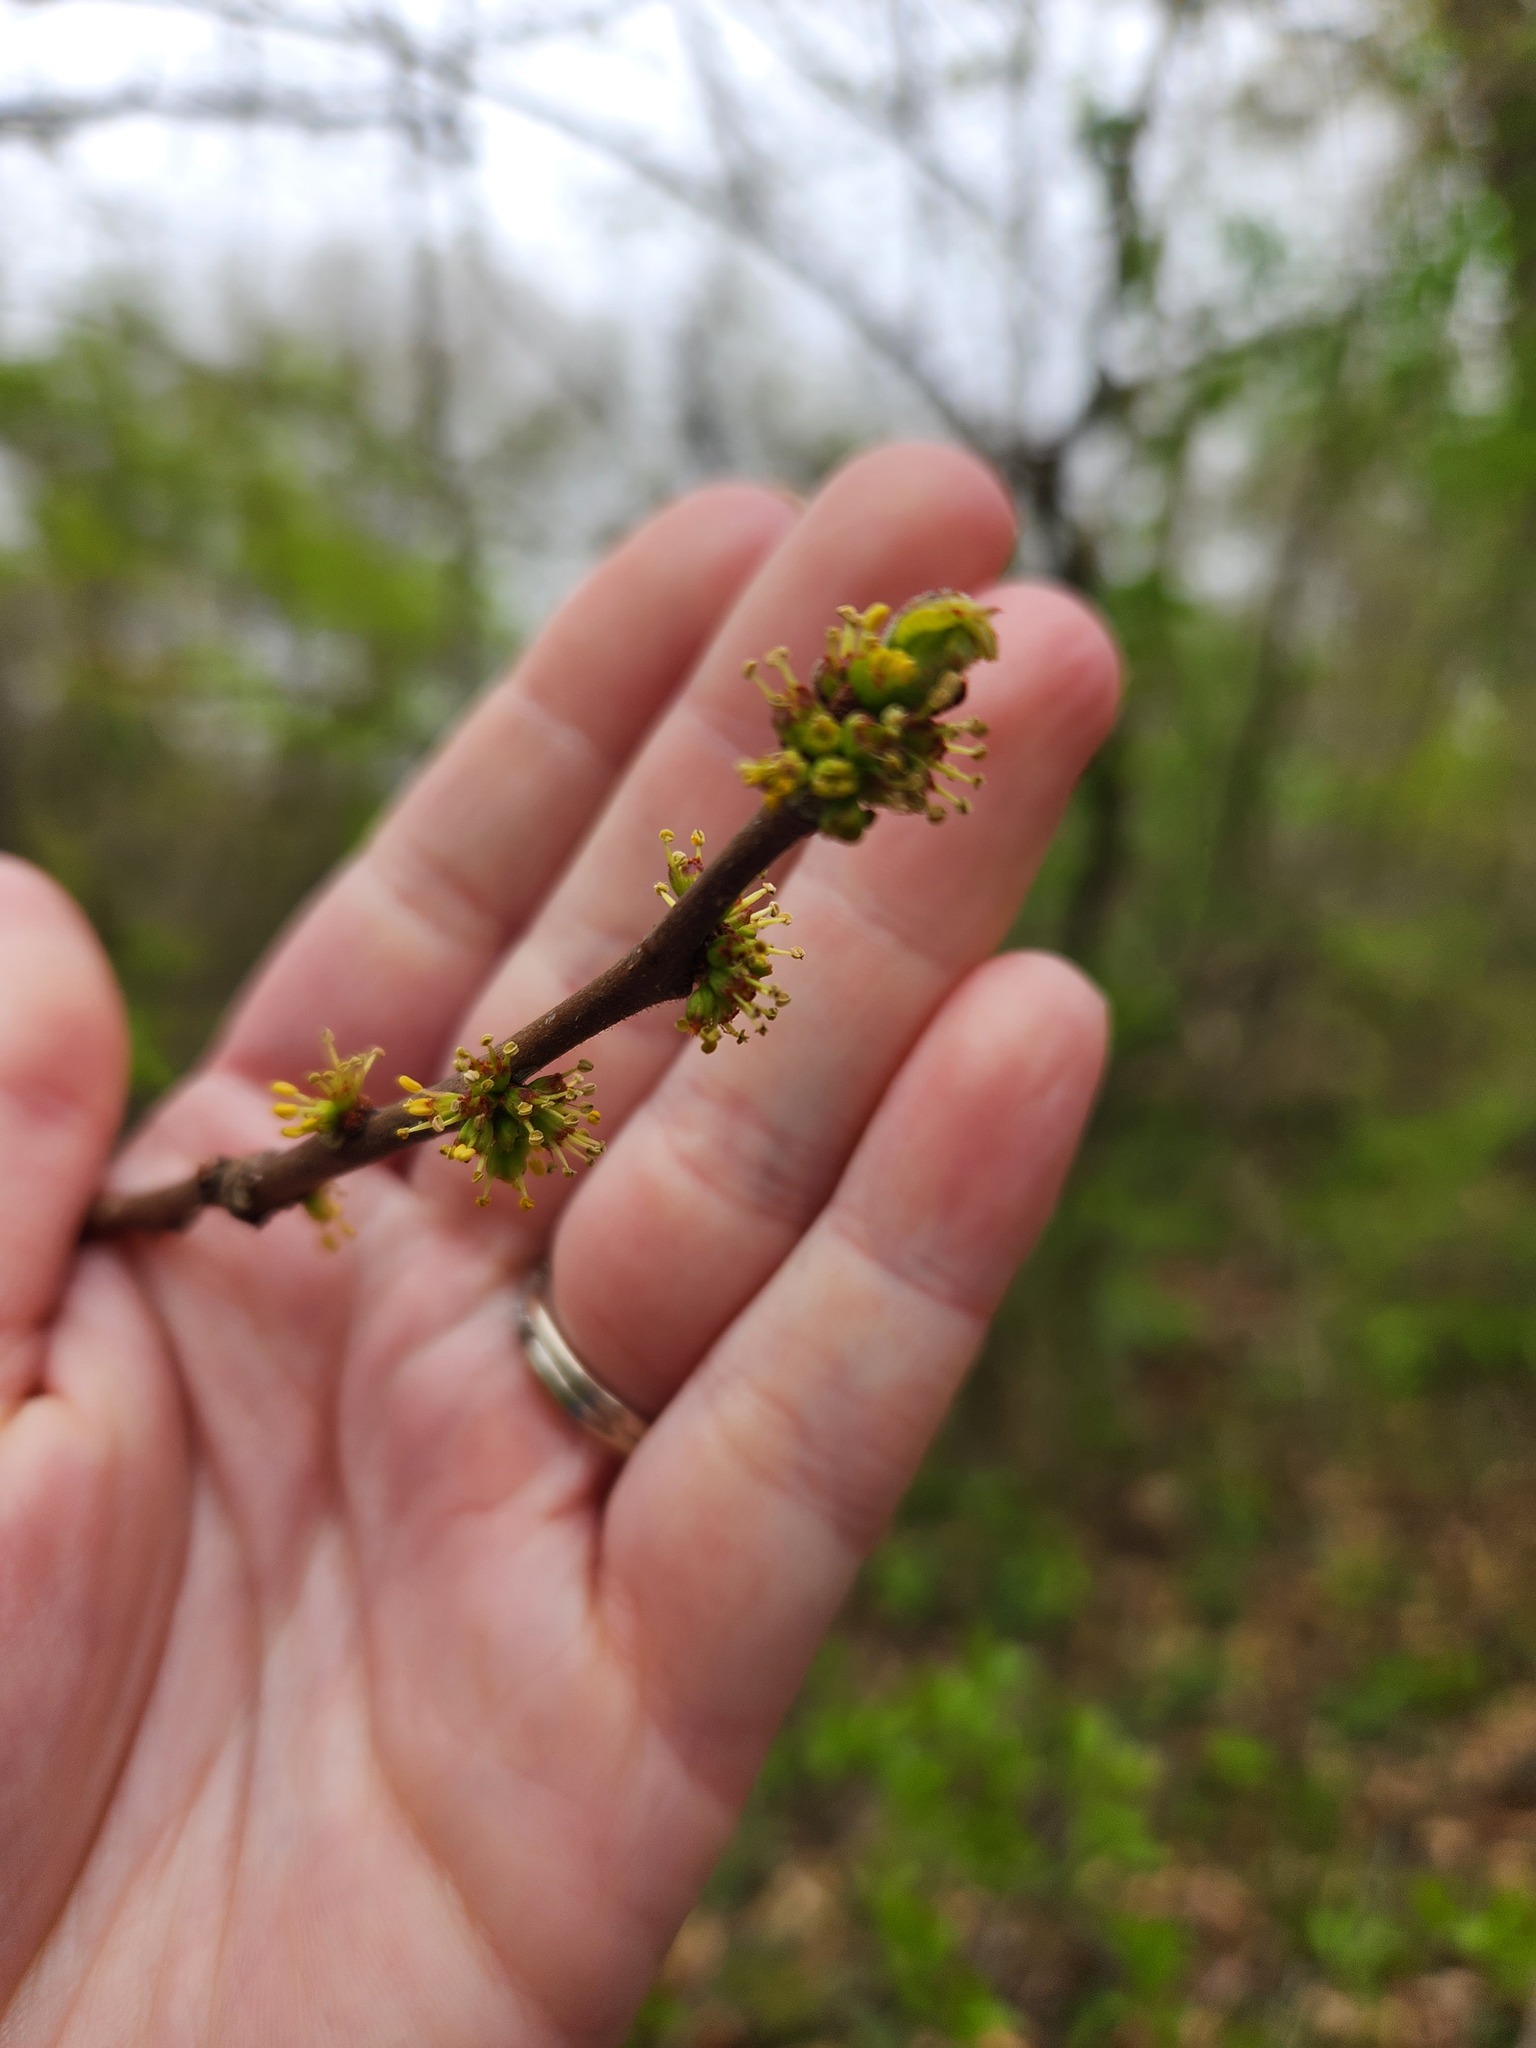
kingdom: Plantae
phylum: Tracheophyta
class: Magnoliopsida
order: Sapindales
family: Rutaceae
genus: Zanthoxylum
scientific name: Zanthoxylum americanum
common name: Northern prickly-ash
